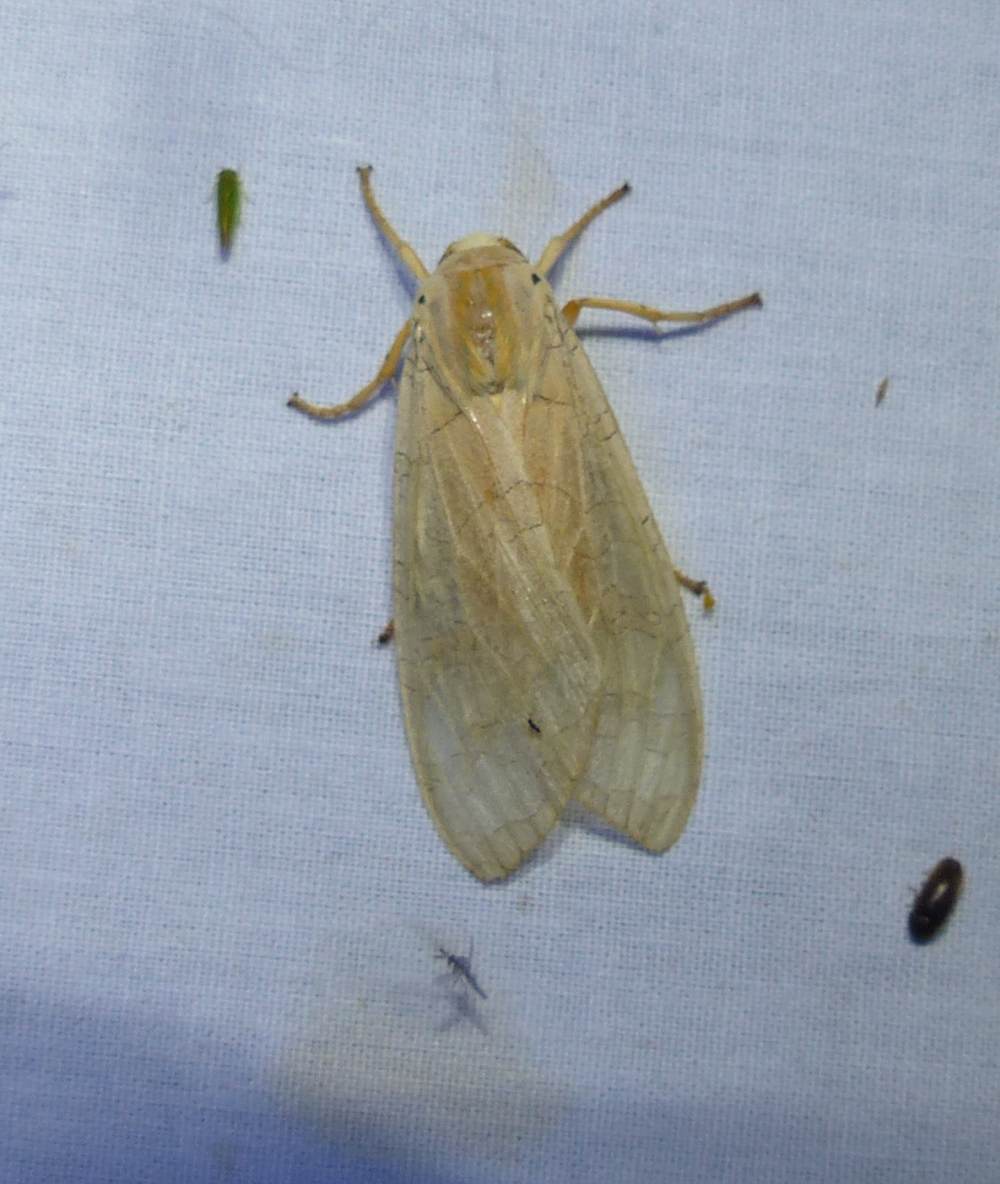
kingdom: Animalia
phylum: Arthropoda
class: Insecta
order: Lepidoptera
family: Erebidae
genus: Halysidota
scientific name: Halysidota tessellaris
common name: Banded tussock moth
